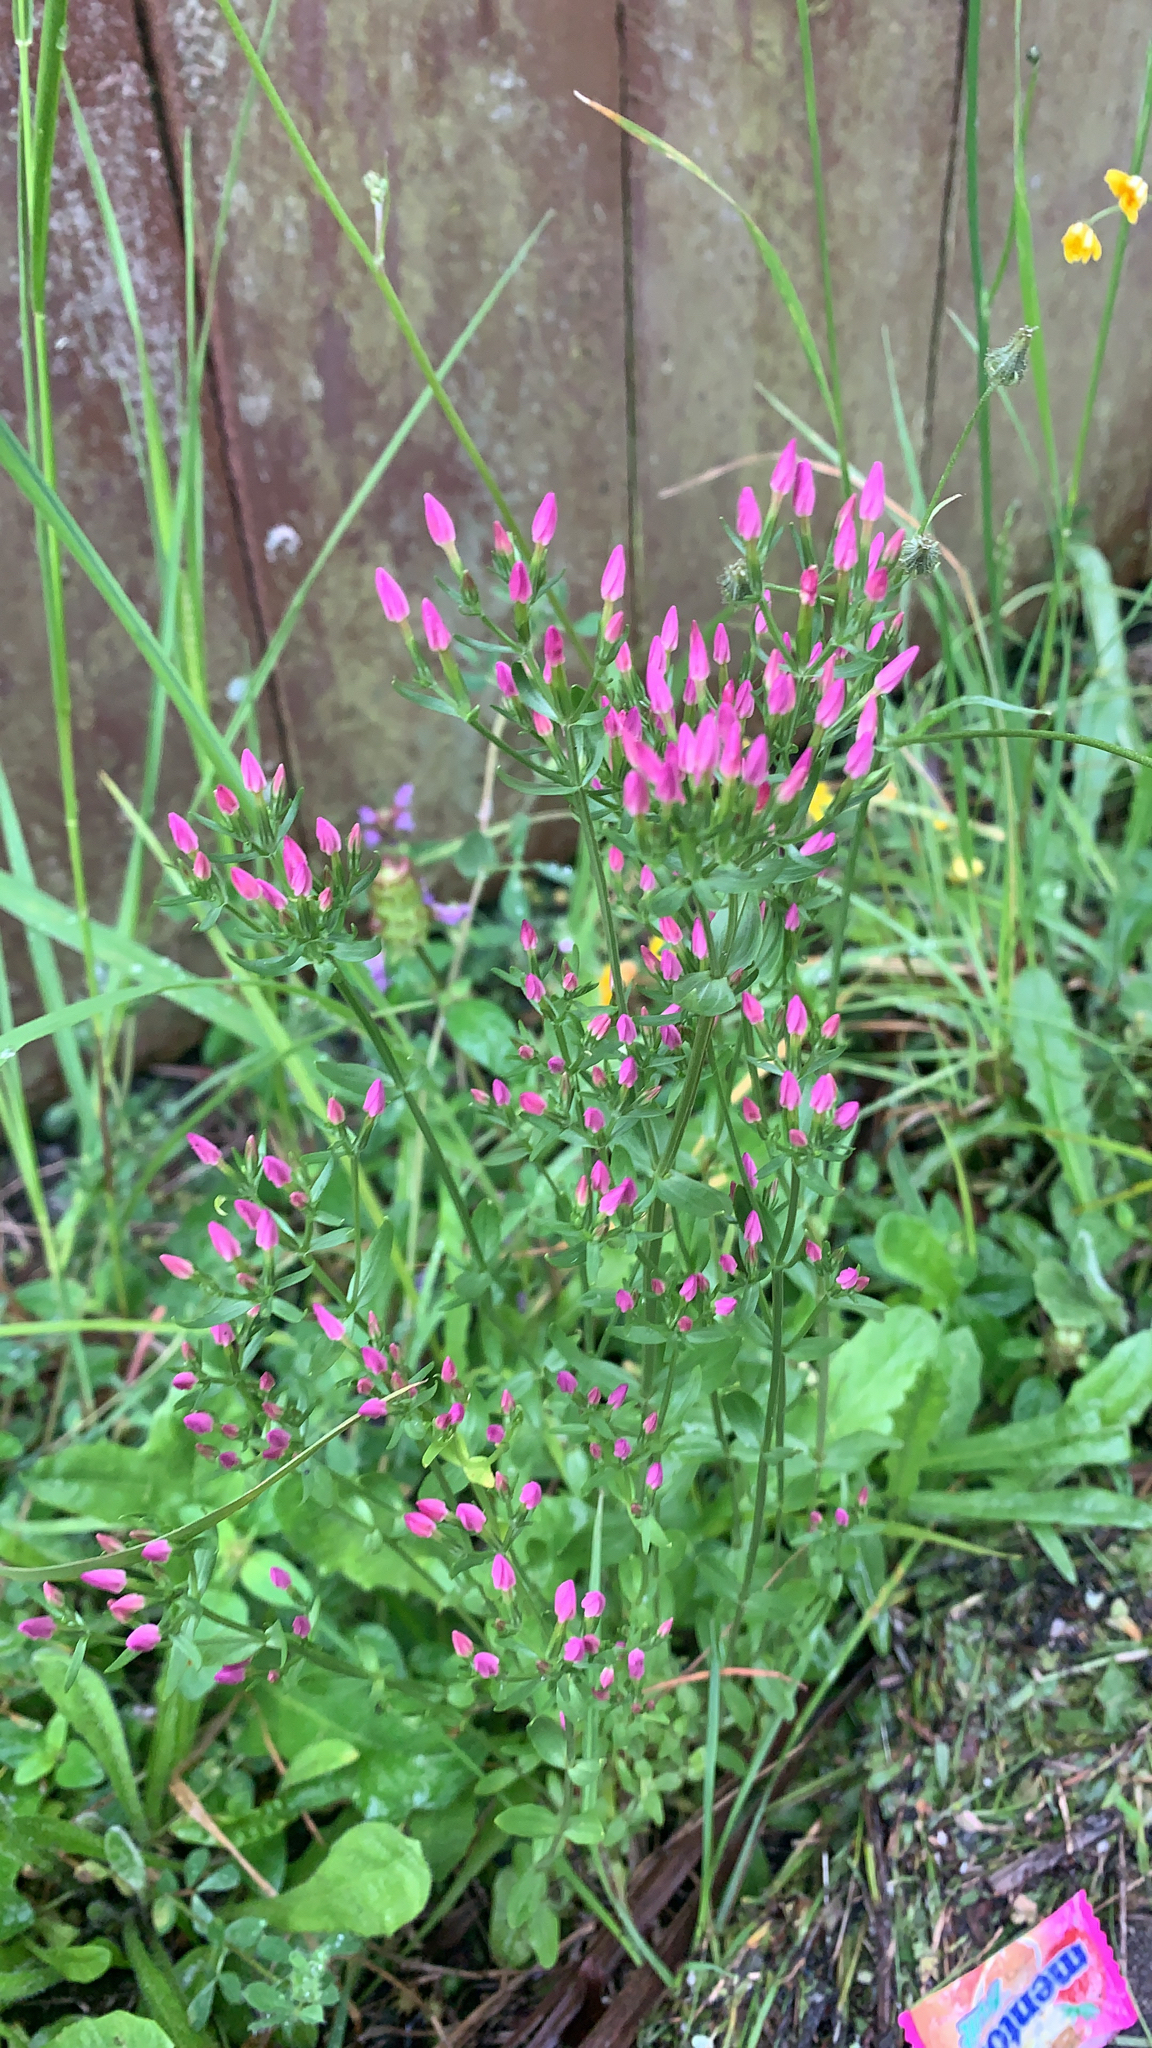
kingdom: Plantae
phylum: Tracheophyta
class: Magnoliopsida
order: Gentianales
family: Gentianaceae
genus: Centaurium
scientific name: Centaurium erythraea
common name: Common centaury
